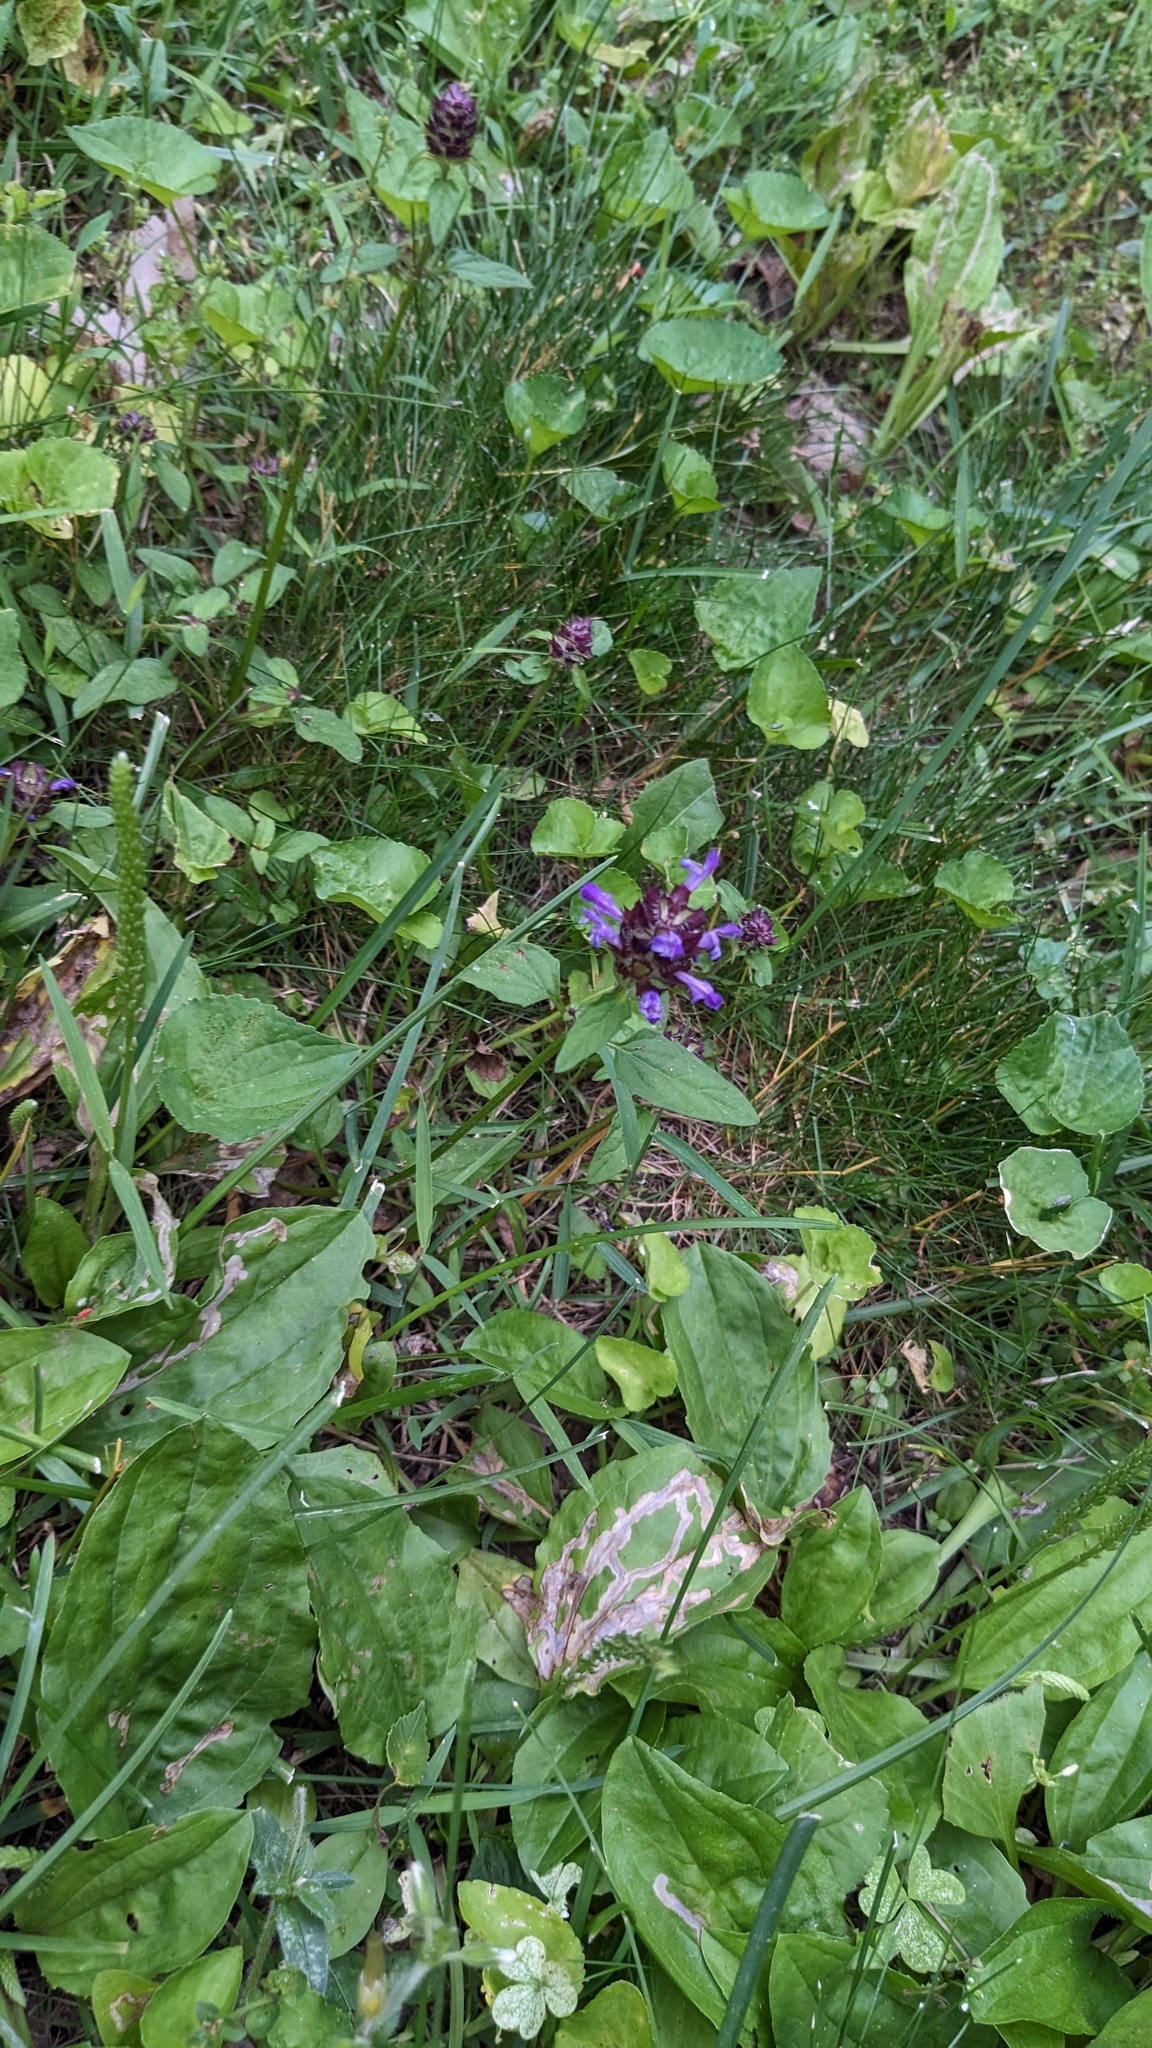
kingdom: Plantae
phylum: Tracheophyta
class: Magnoliopsida
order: Lamiales
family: Lamiaceae
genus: Prunella
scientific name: Prunella vulgaris
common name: Heal-all
